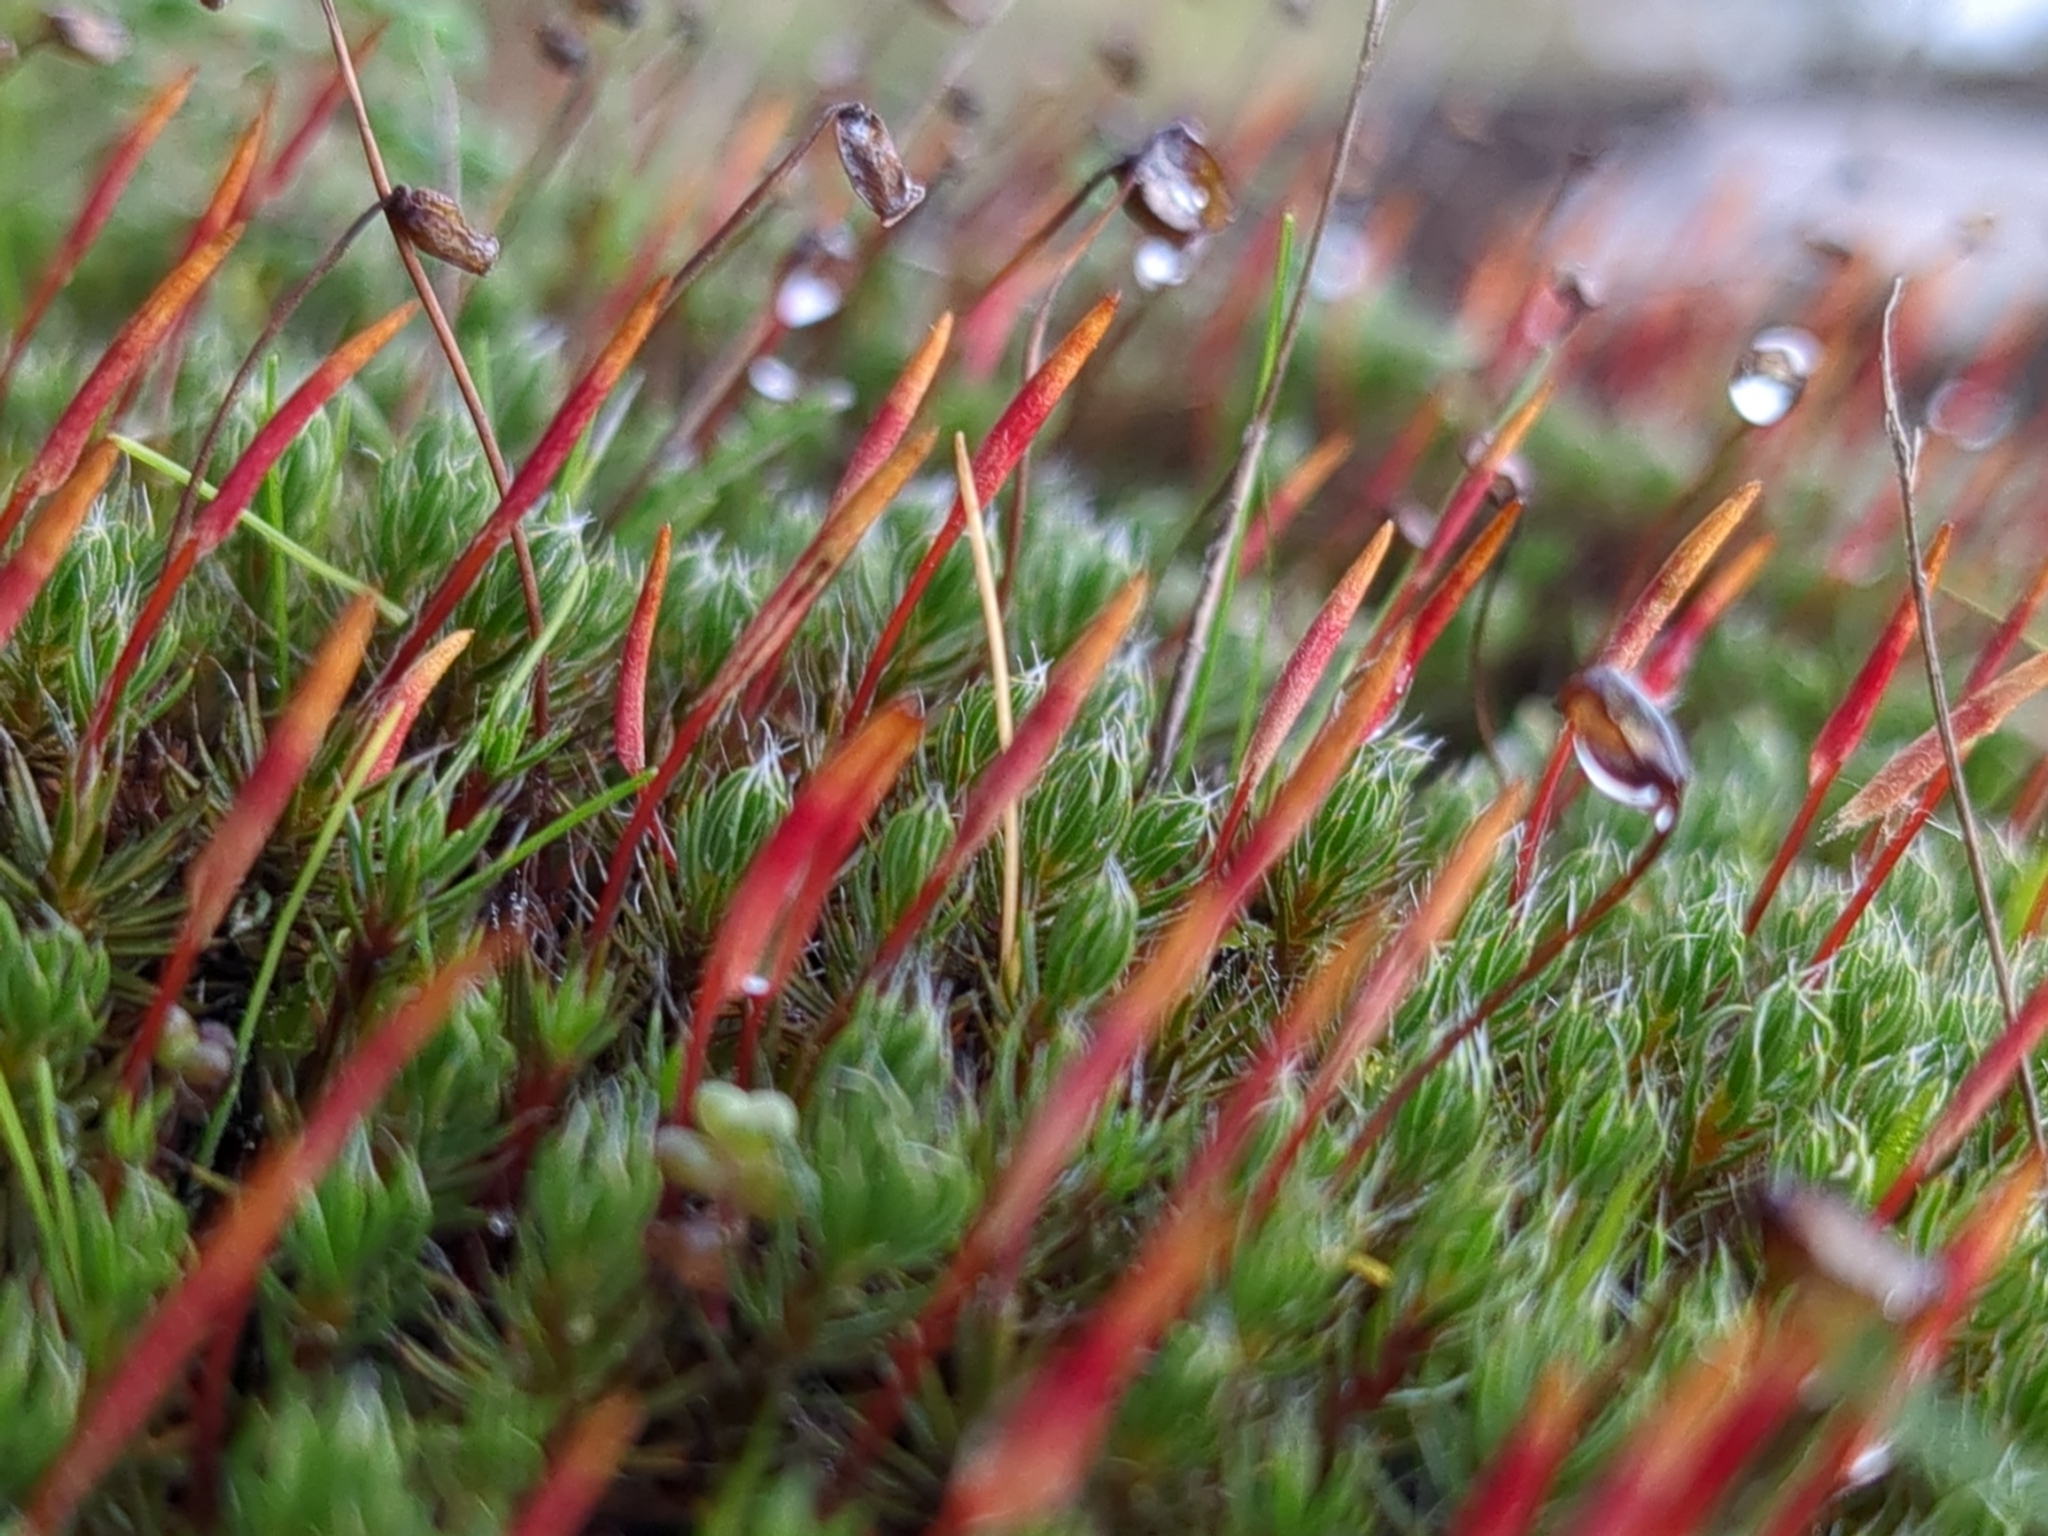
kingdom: Plantae
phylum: Bryophyta
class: Polytrichopsida
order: Polytrichales
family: Polytrichaceae
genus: Polytrichum
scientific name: Polytrichum piliferum
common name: Bristly haircap
